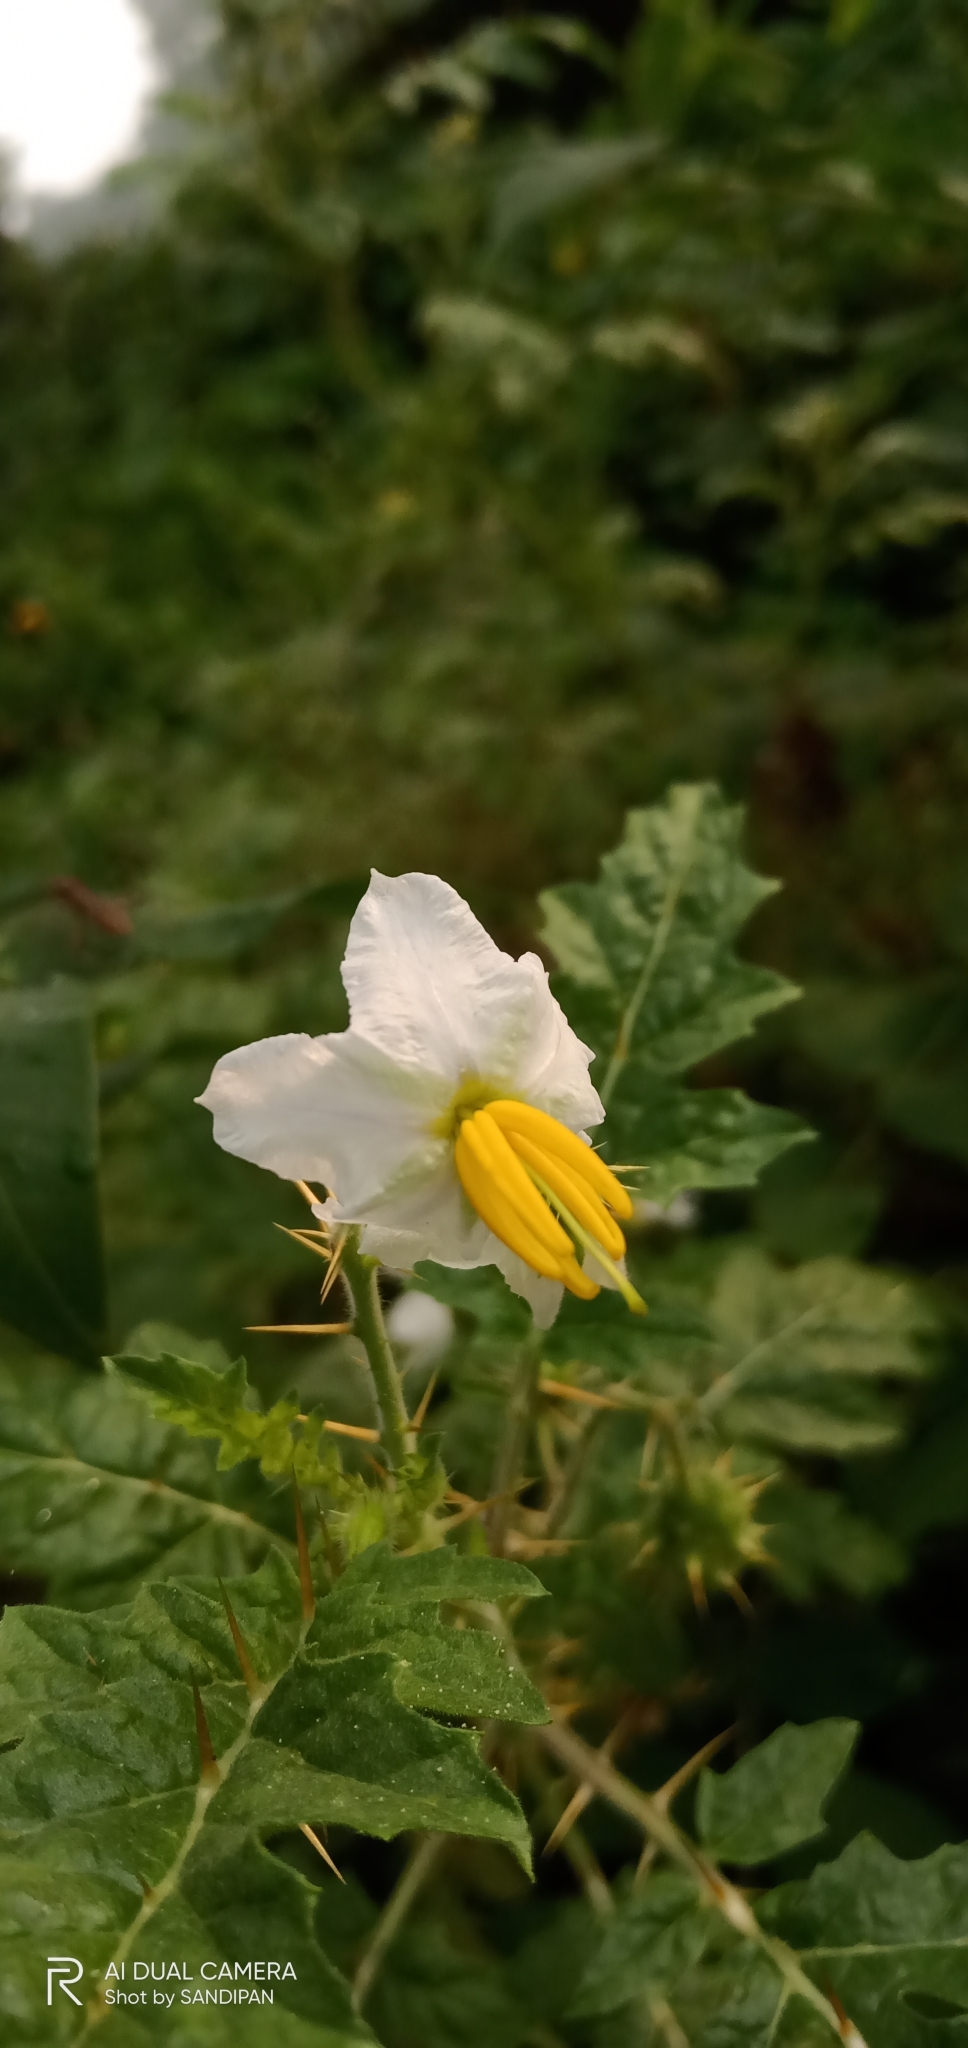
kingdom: Plantae
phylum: Tracheophyta
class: Magnoliopsida
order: Solanales
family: Solanaceae
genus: Solanum
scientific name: Solanum sisymbriifolium
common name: Red buffalo-bur
